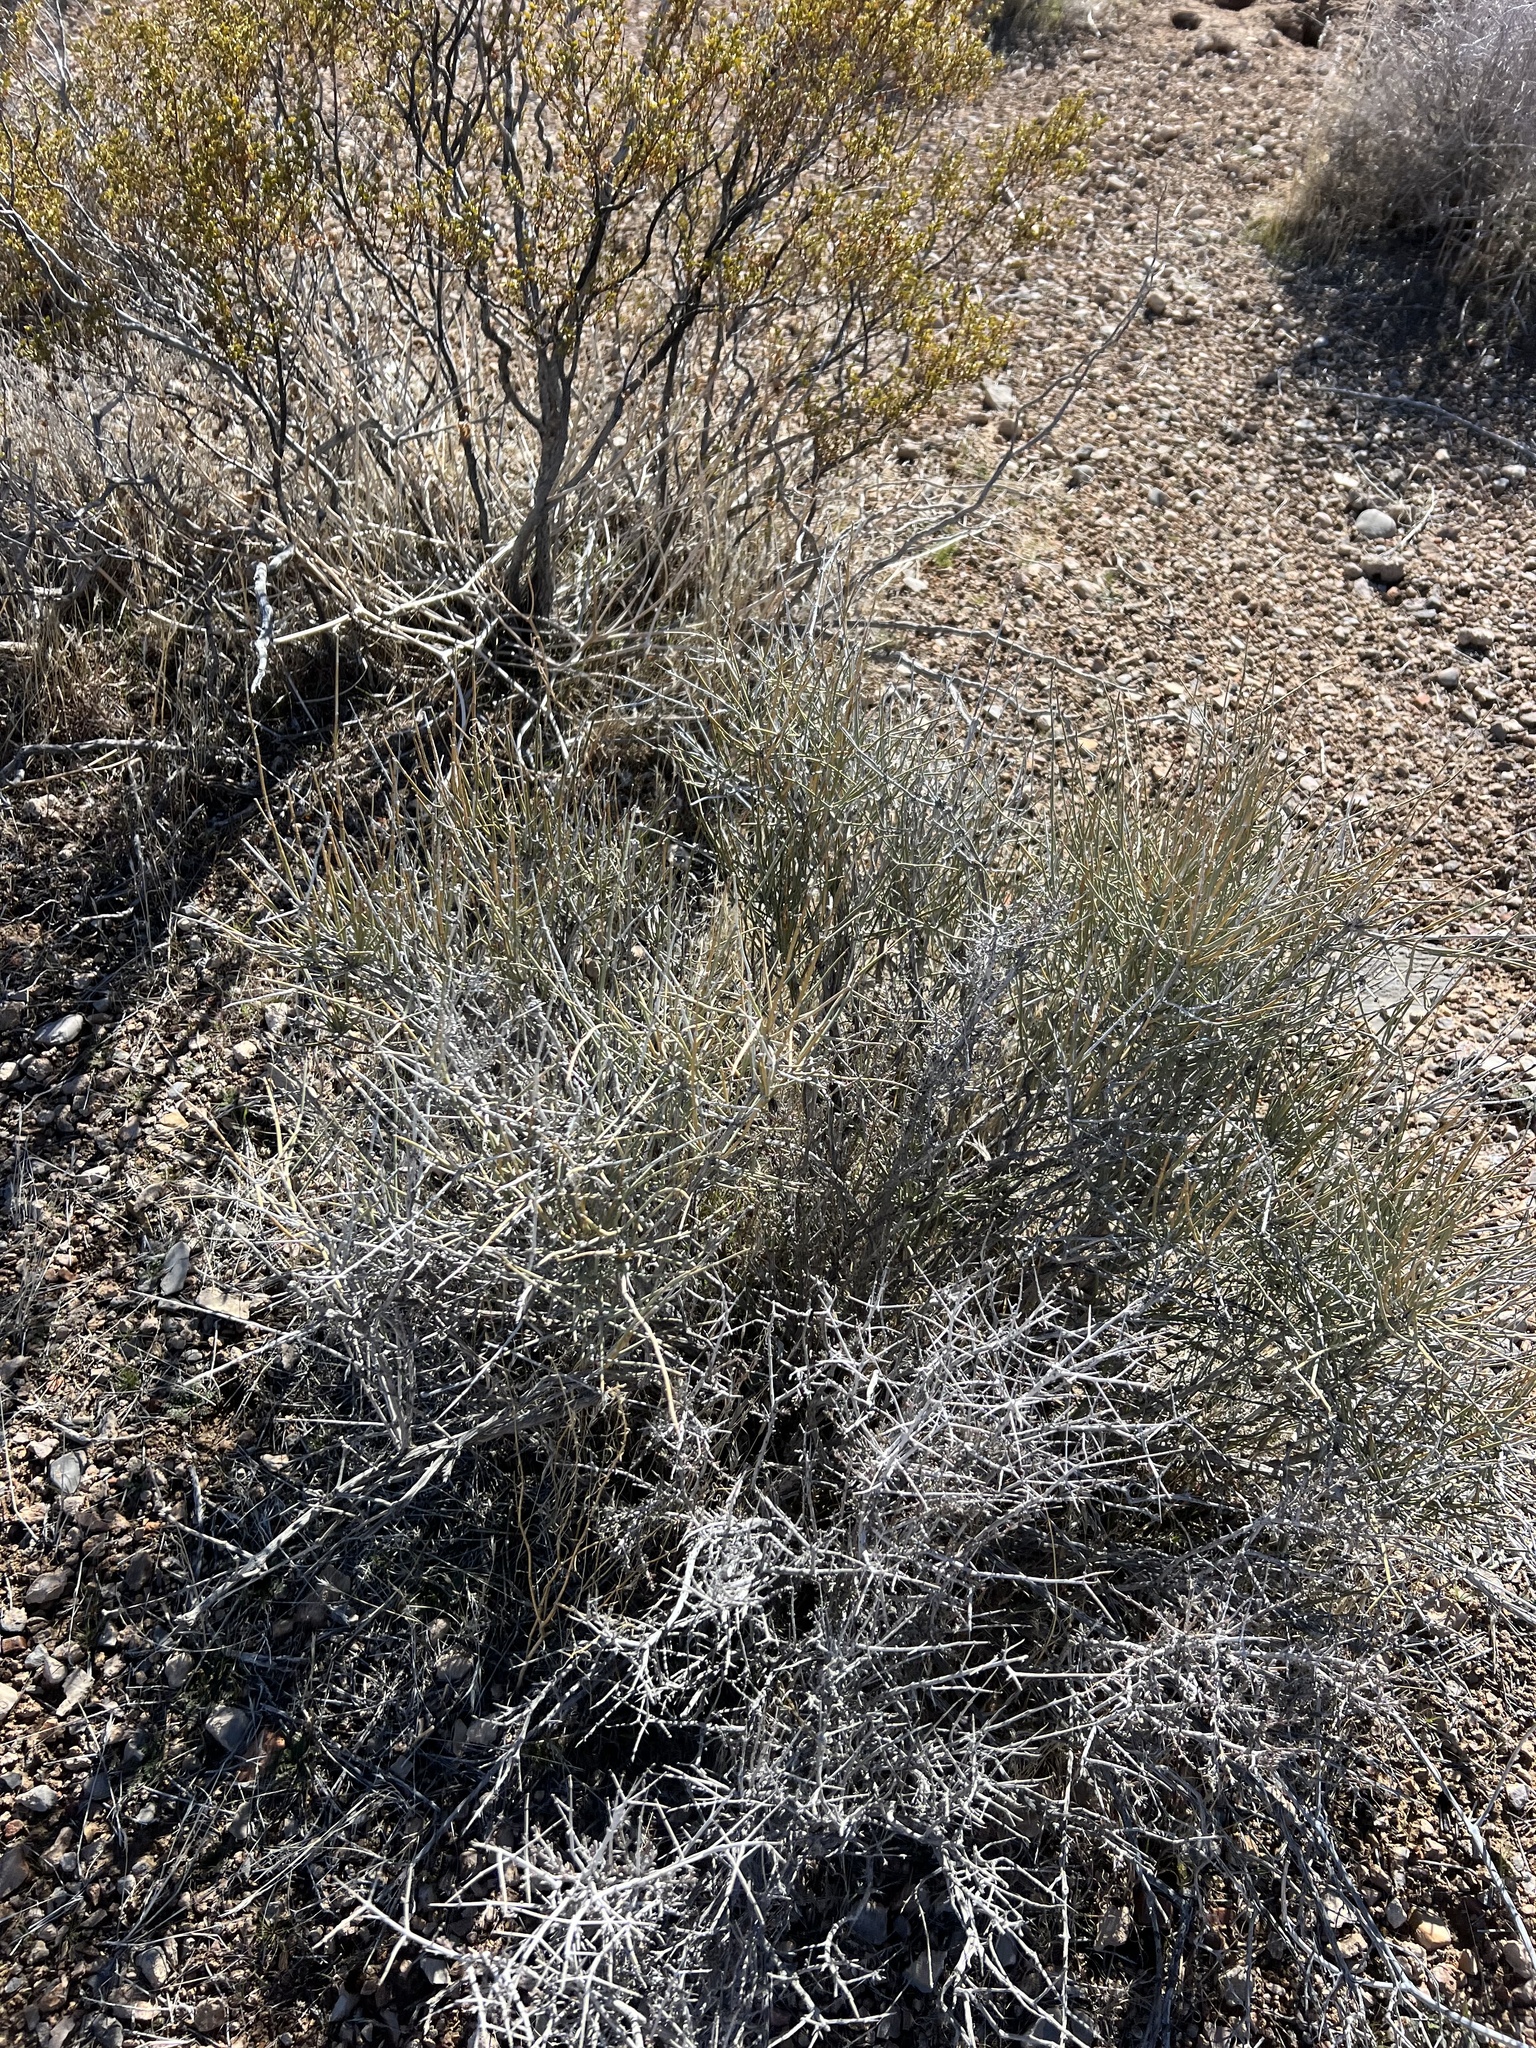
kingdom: Plantae
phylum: Tracheophyta
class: Gnetopsida
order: Ephedrales
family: Ephedraceae
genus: Ephedra
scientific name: Ephedra nevadensis
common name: Gray ephedra
